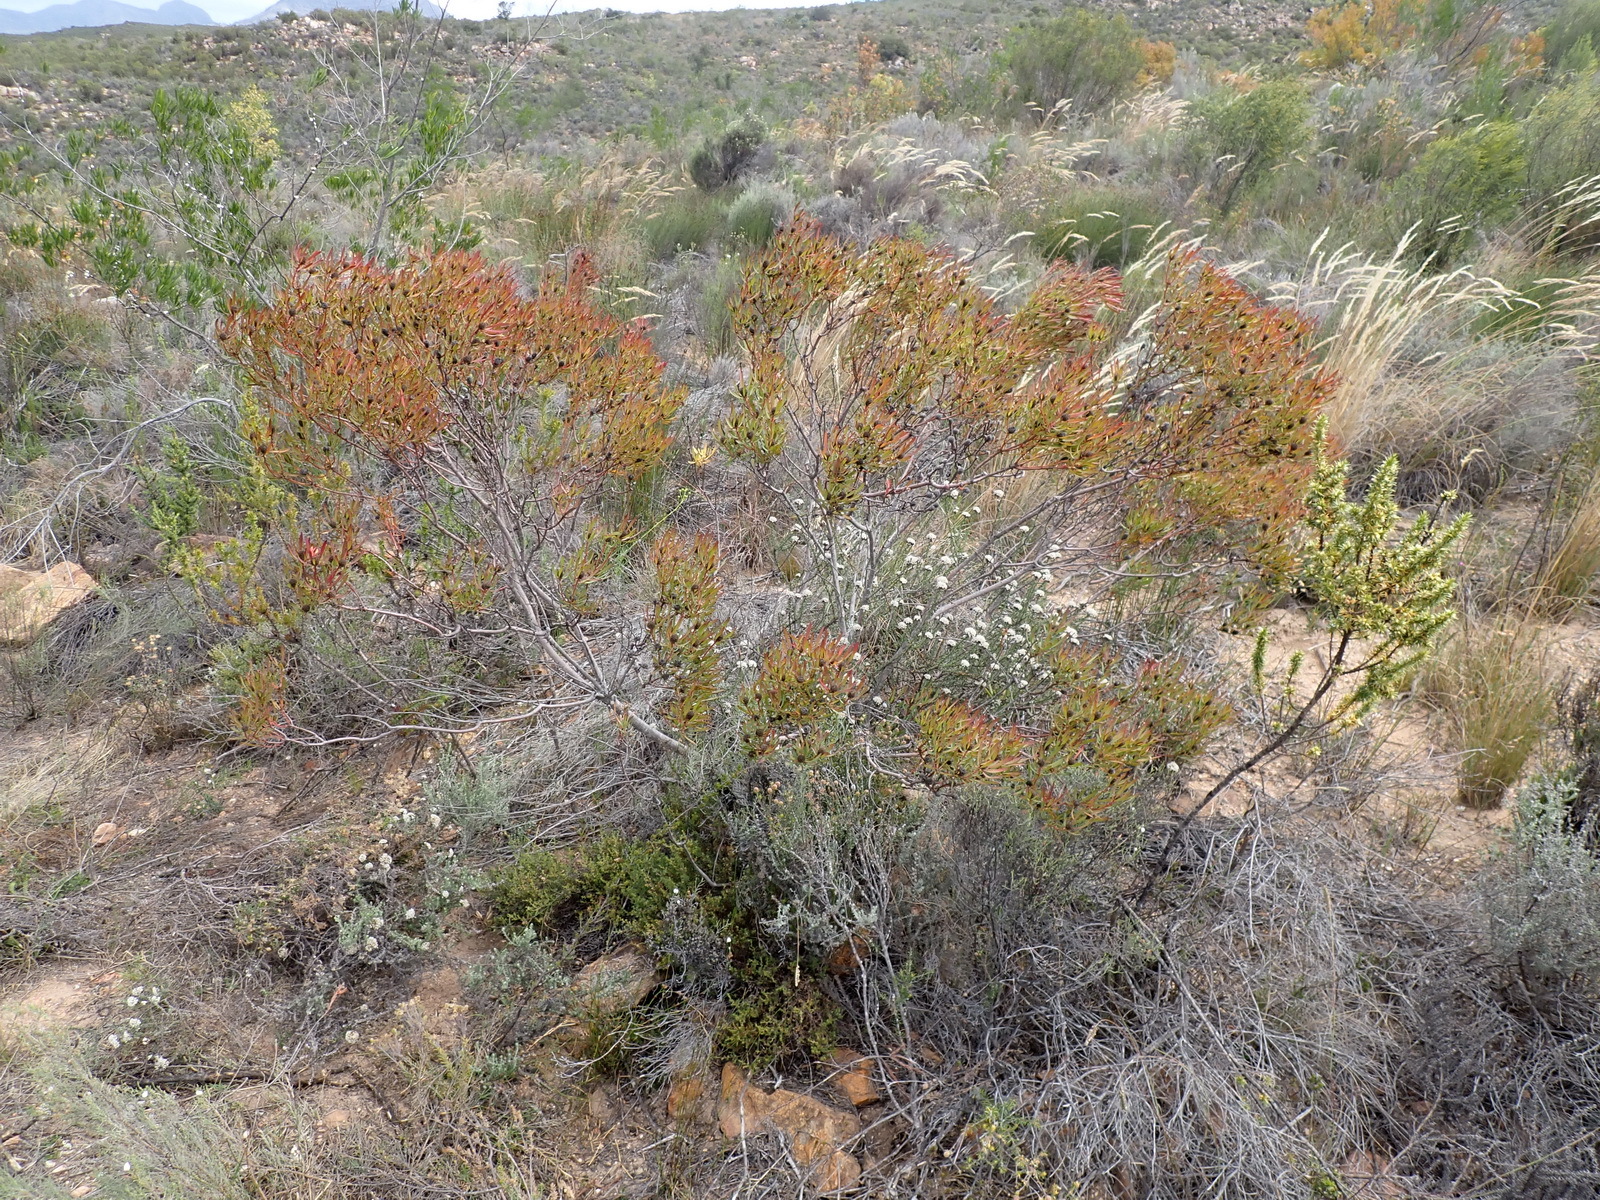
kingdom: Plantae
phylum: Tracheophyta
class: Magnoliopsida
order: Proteales
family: Proteaceae
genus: Leucadendron
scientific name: Leucadendron salignum
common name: Common sunshine conebush
